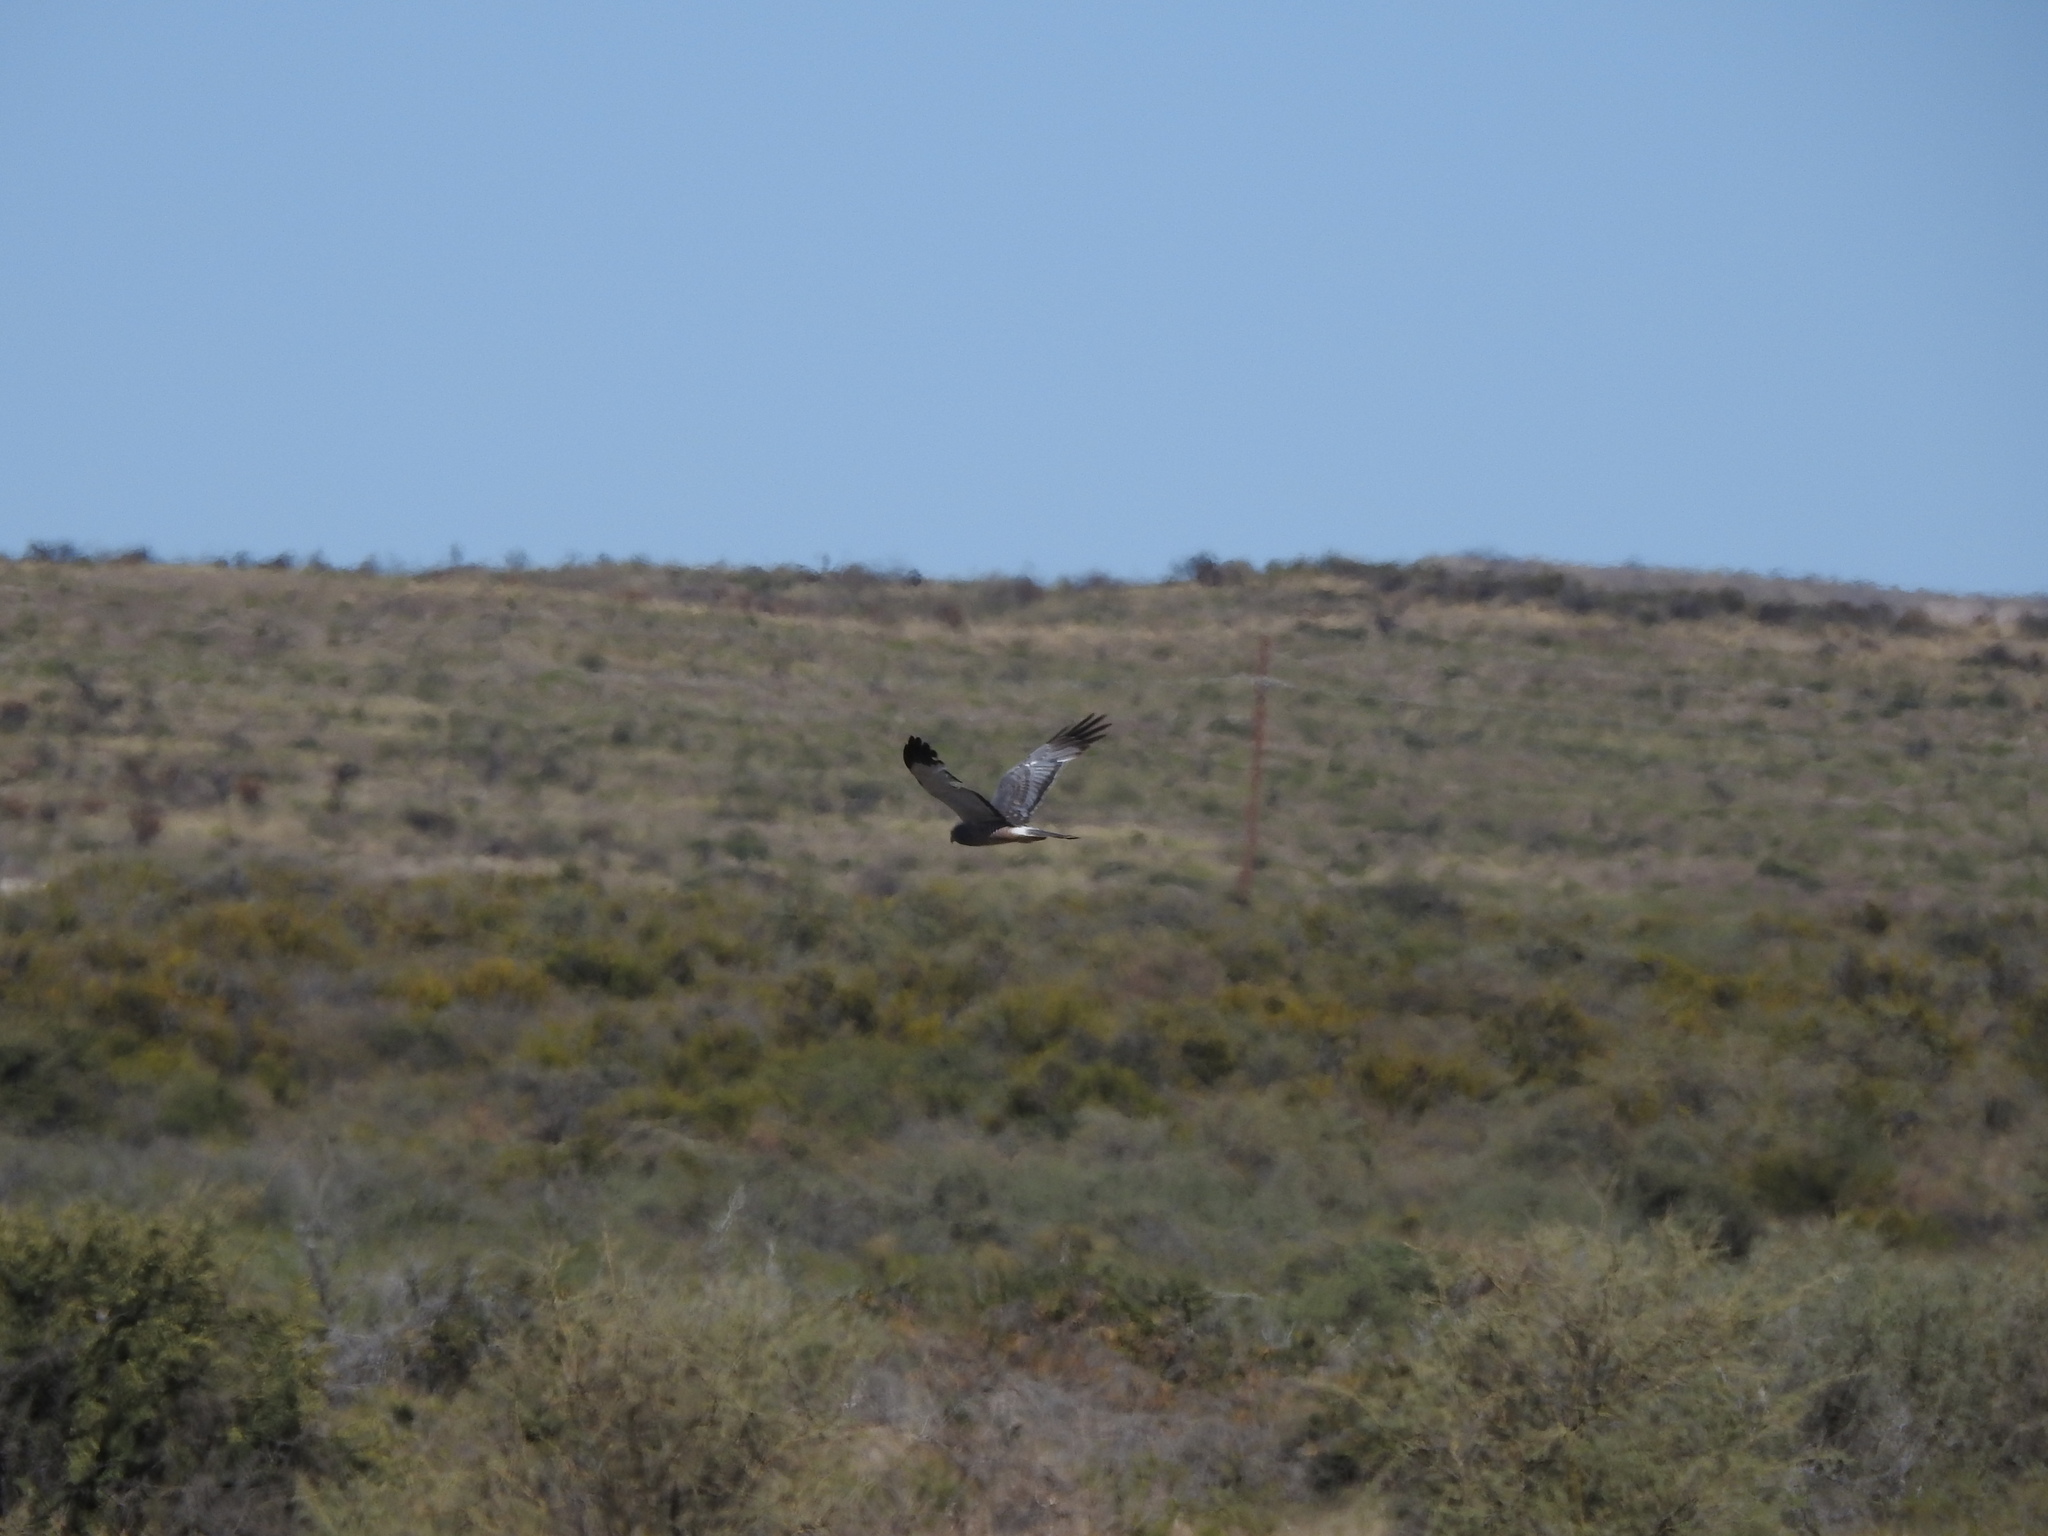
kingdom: Animalia
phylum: Chordata
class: Aves
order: Accipitriformes
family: Accipitridae
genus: Circus
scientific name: Circus cinereus
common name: Cinereous harrier
